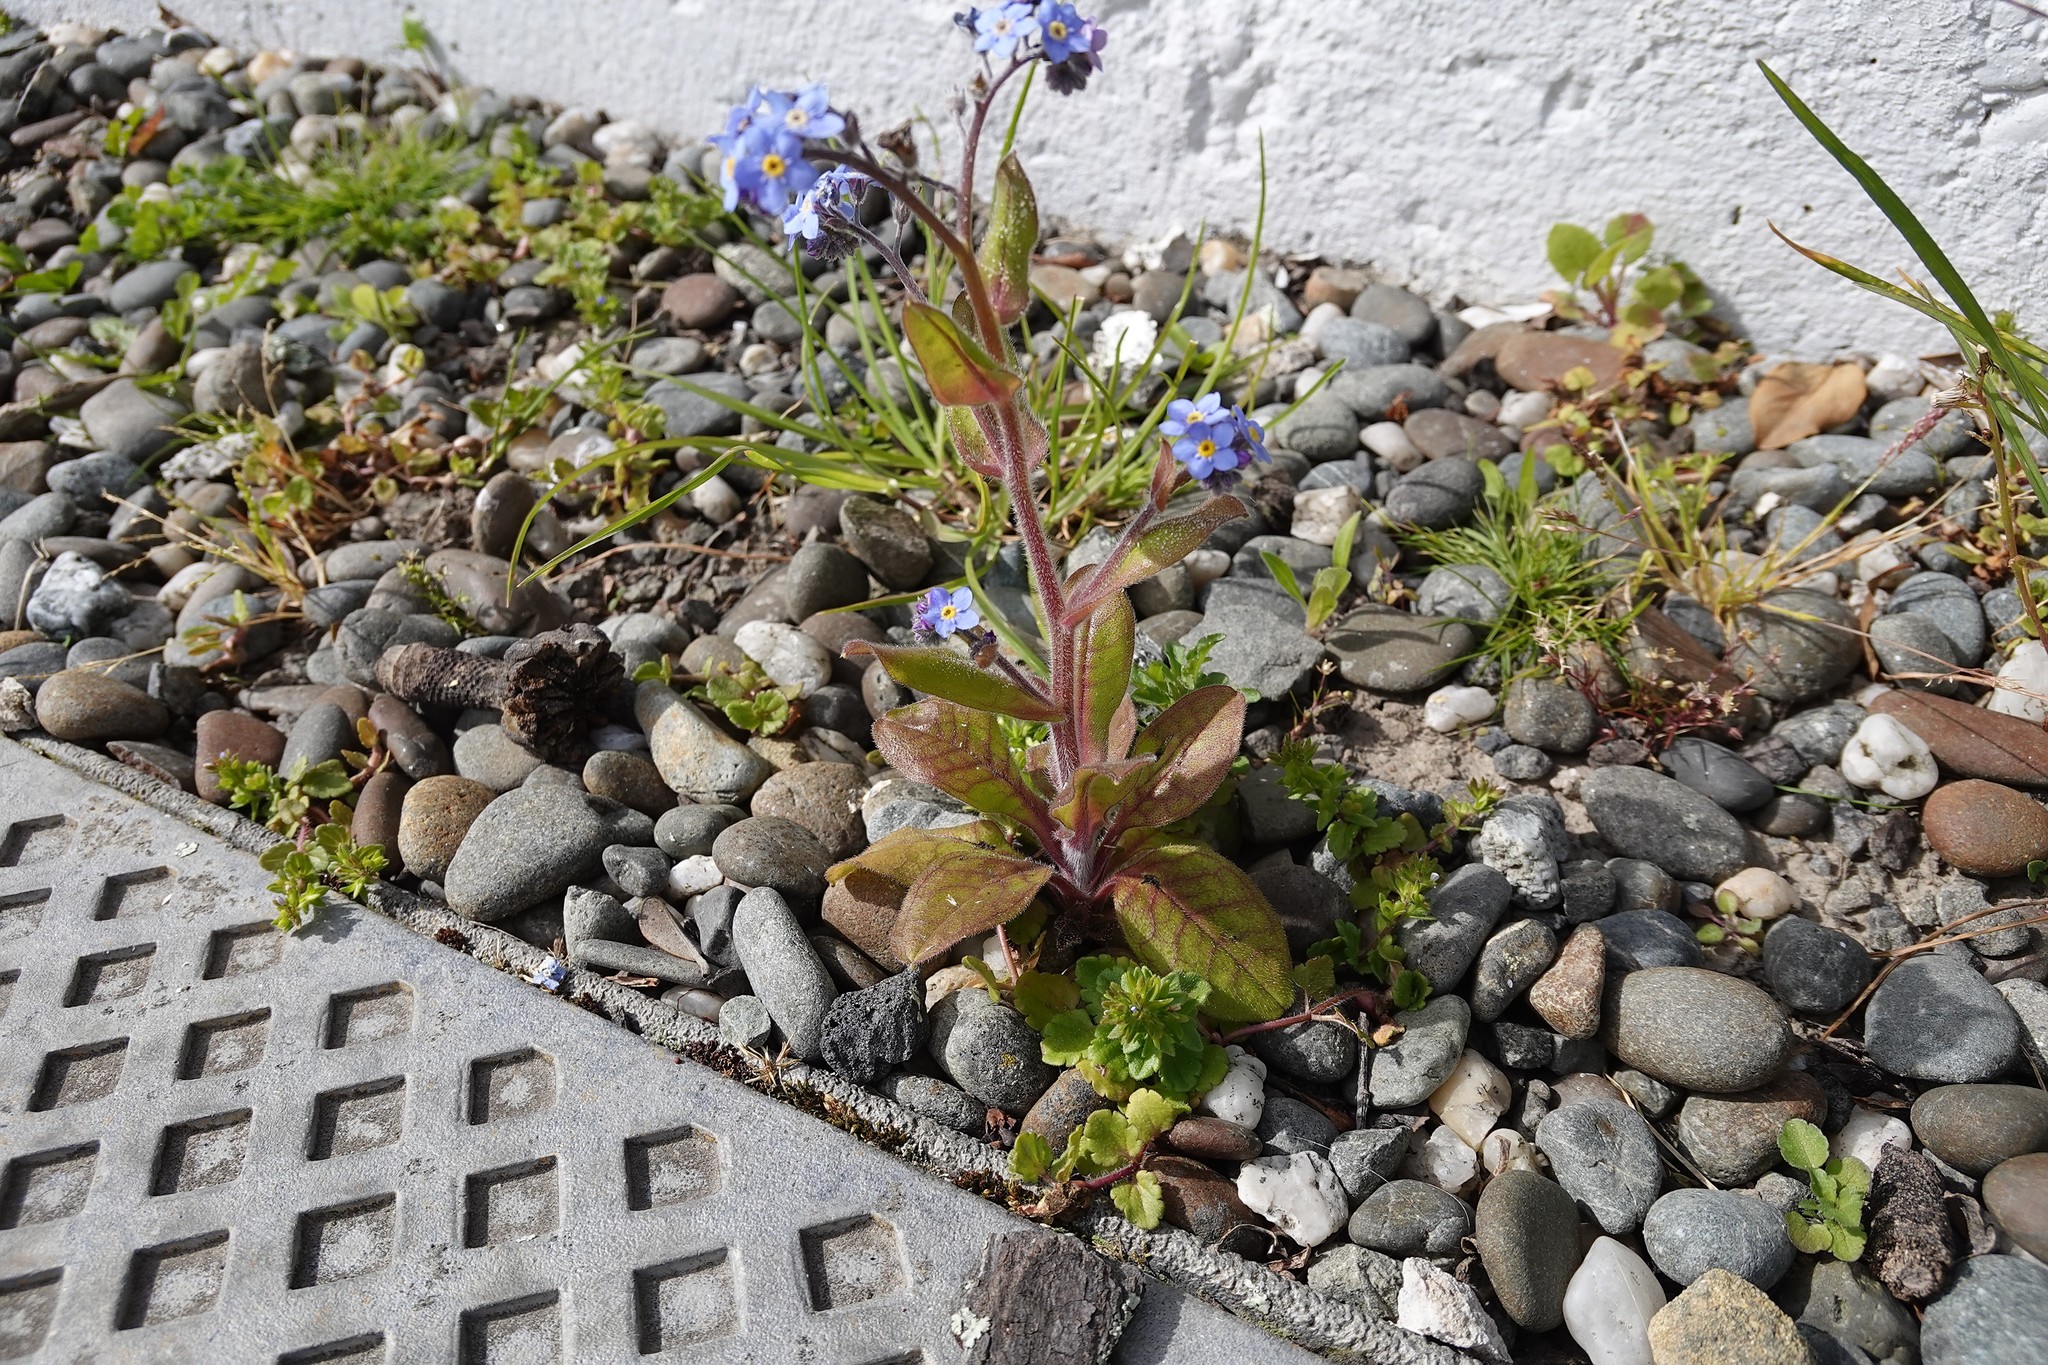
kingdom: Plantae
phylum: Tracheophyta
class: Magnoliopsida
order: Boraginales
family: Boraginaceae
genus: Myosotis
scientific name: Myosotis sylvatica
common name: Wood forget-me-not
